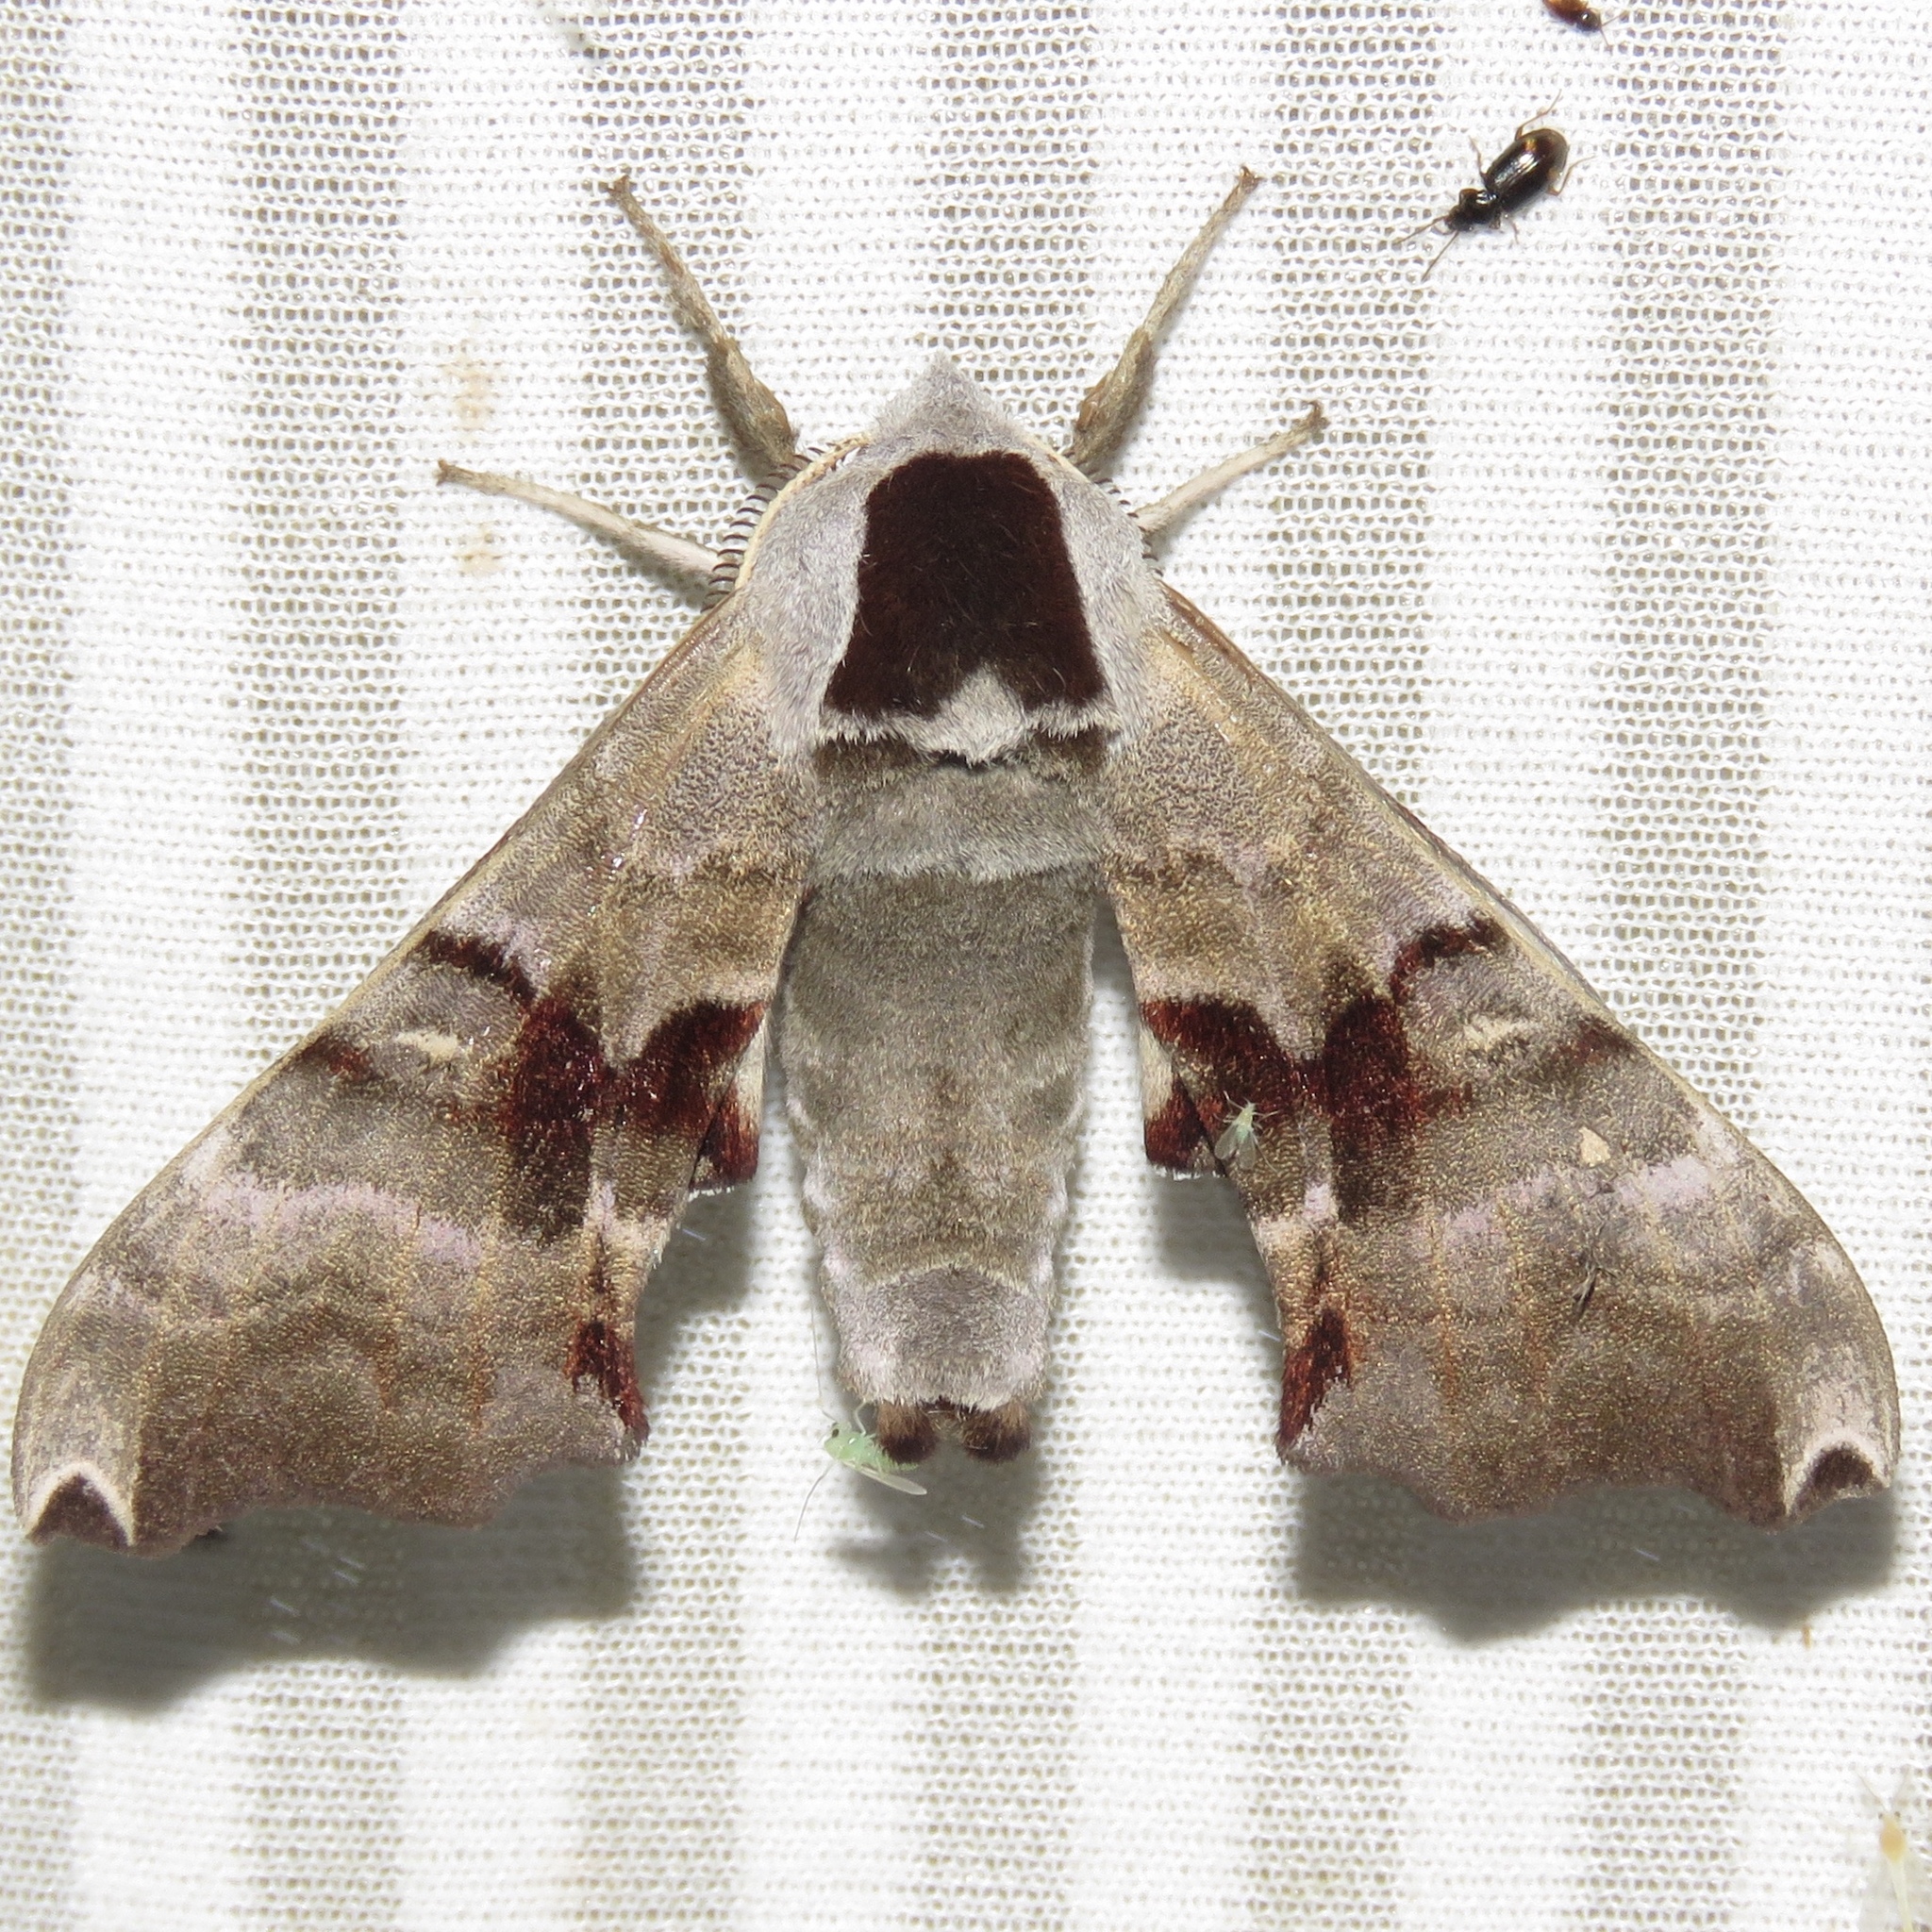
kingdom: Animalia
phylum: Arthropoda
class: Insecta
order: Lepidoptera
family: Sphingidae
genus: Smerinthus
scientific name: Smerinthus jamaicensis
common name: Twin spotted sphinx
